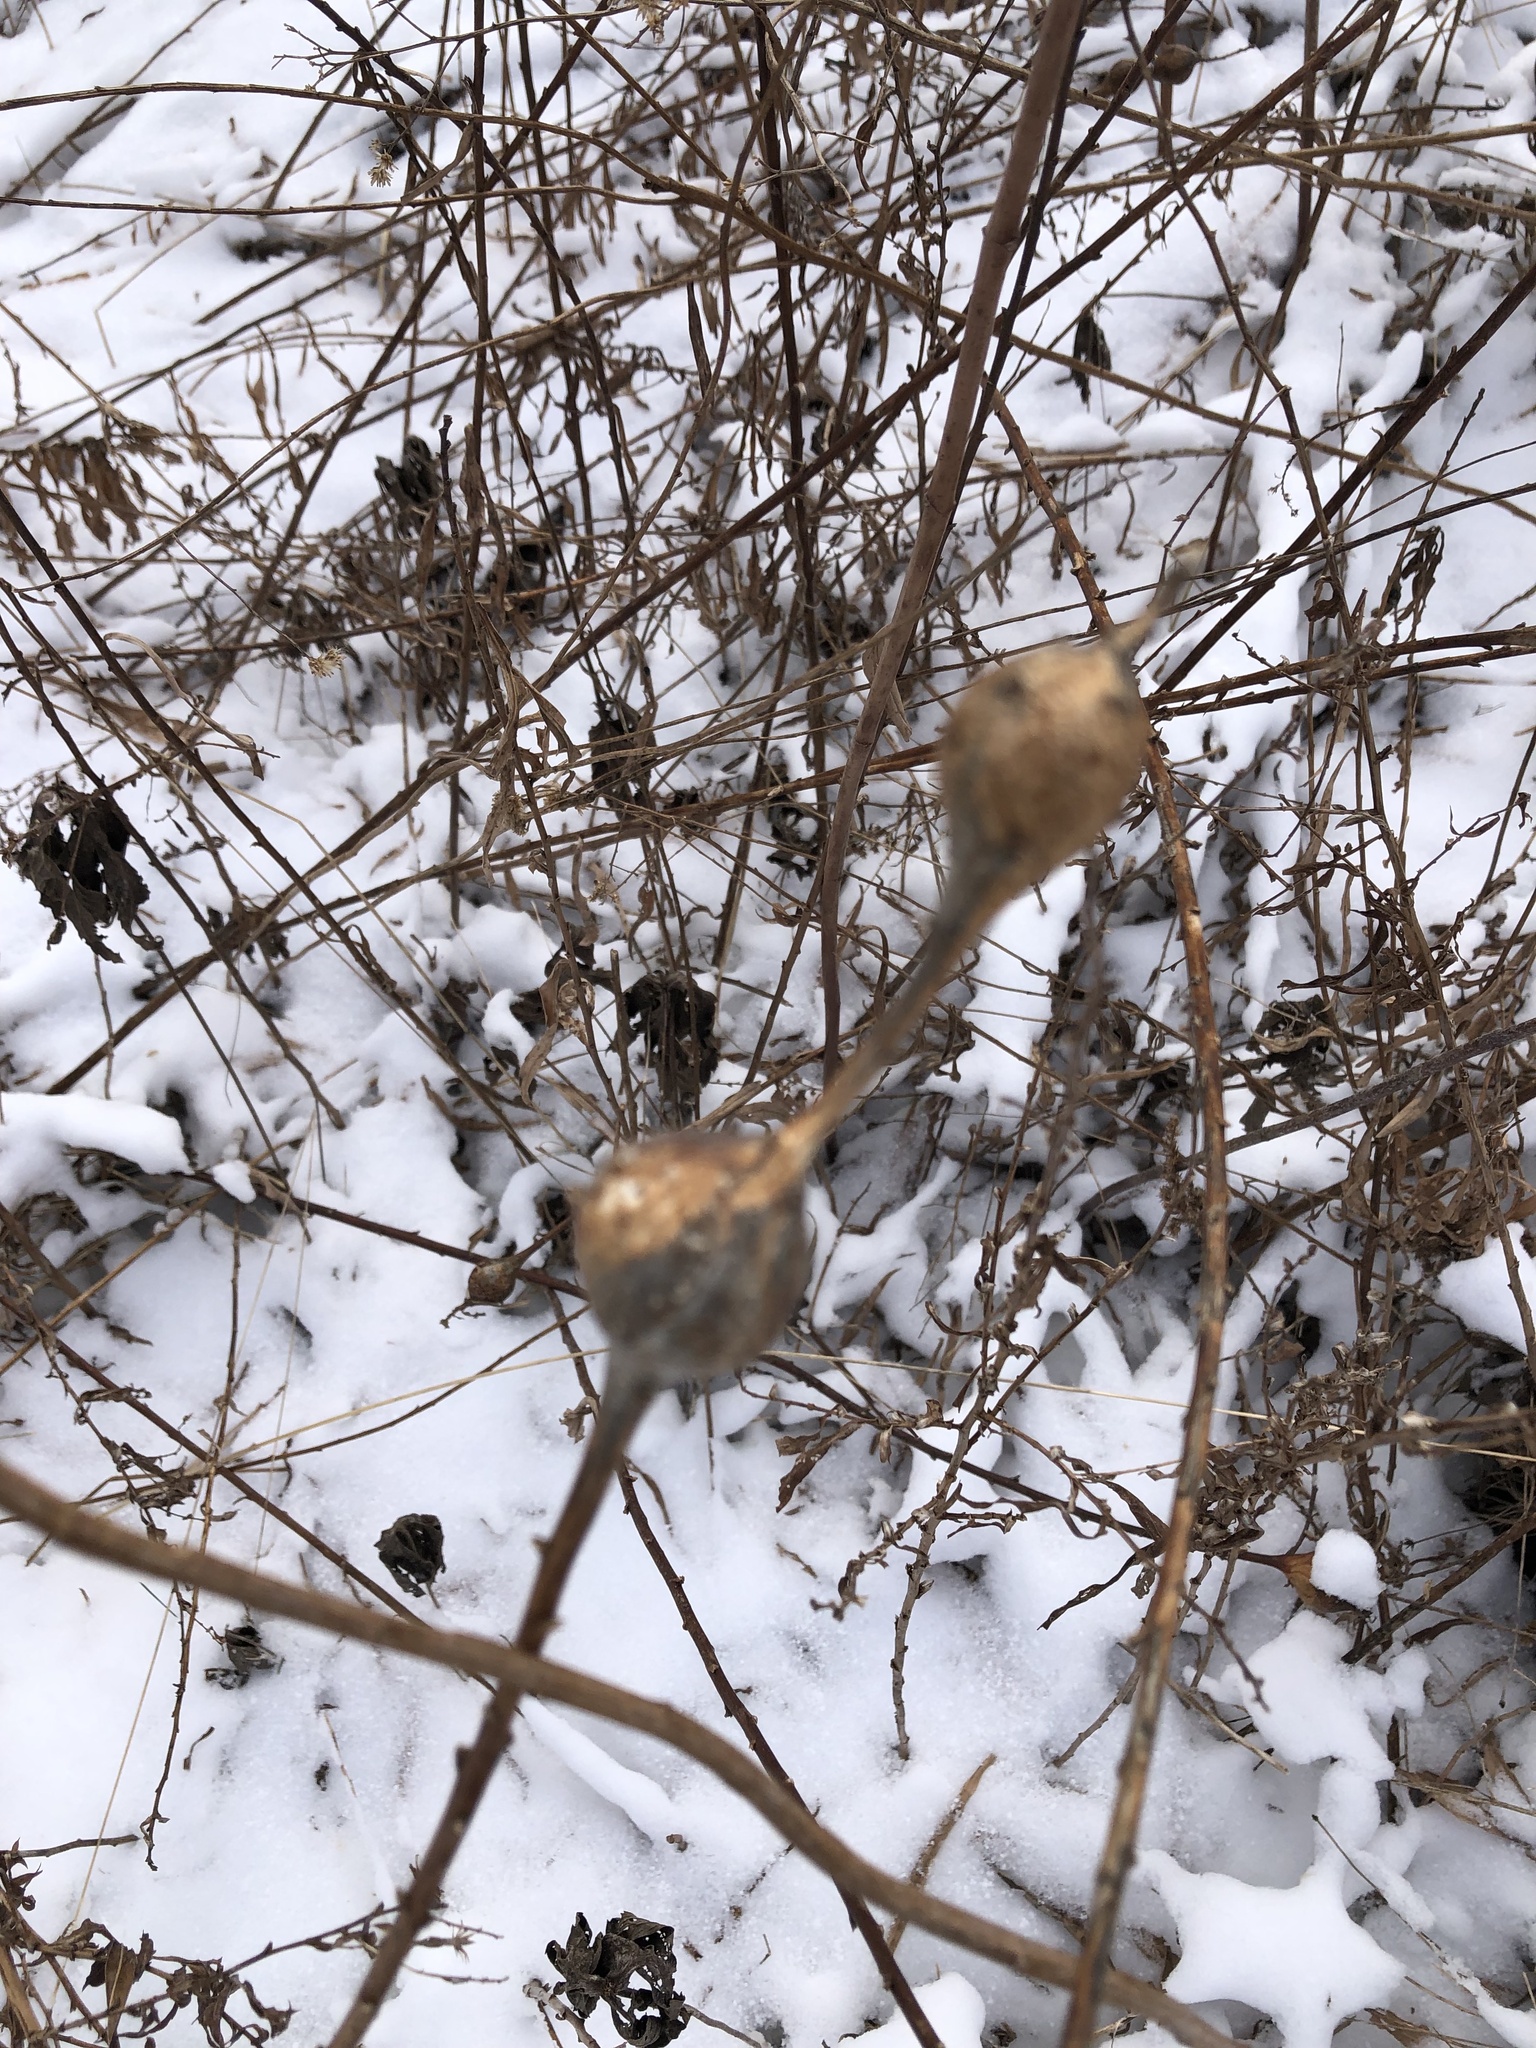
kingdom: Animalia
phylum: Arthropoda
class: Insecta
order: Diptera
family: Tephritidae
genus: Eurosta
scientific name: Eurosta solidaginis
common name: Goldenrod gall fly
